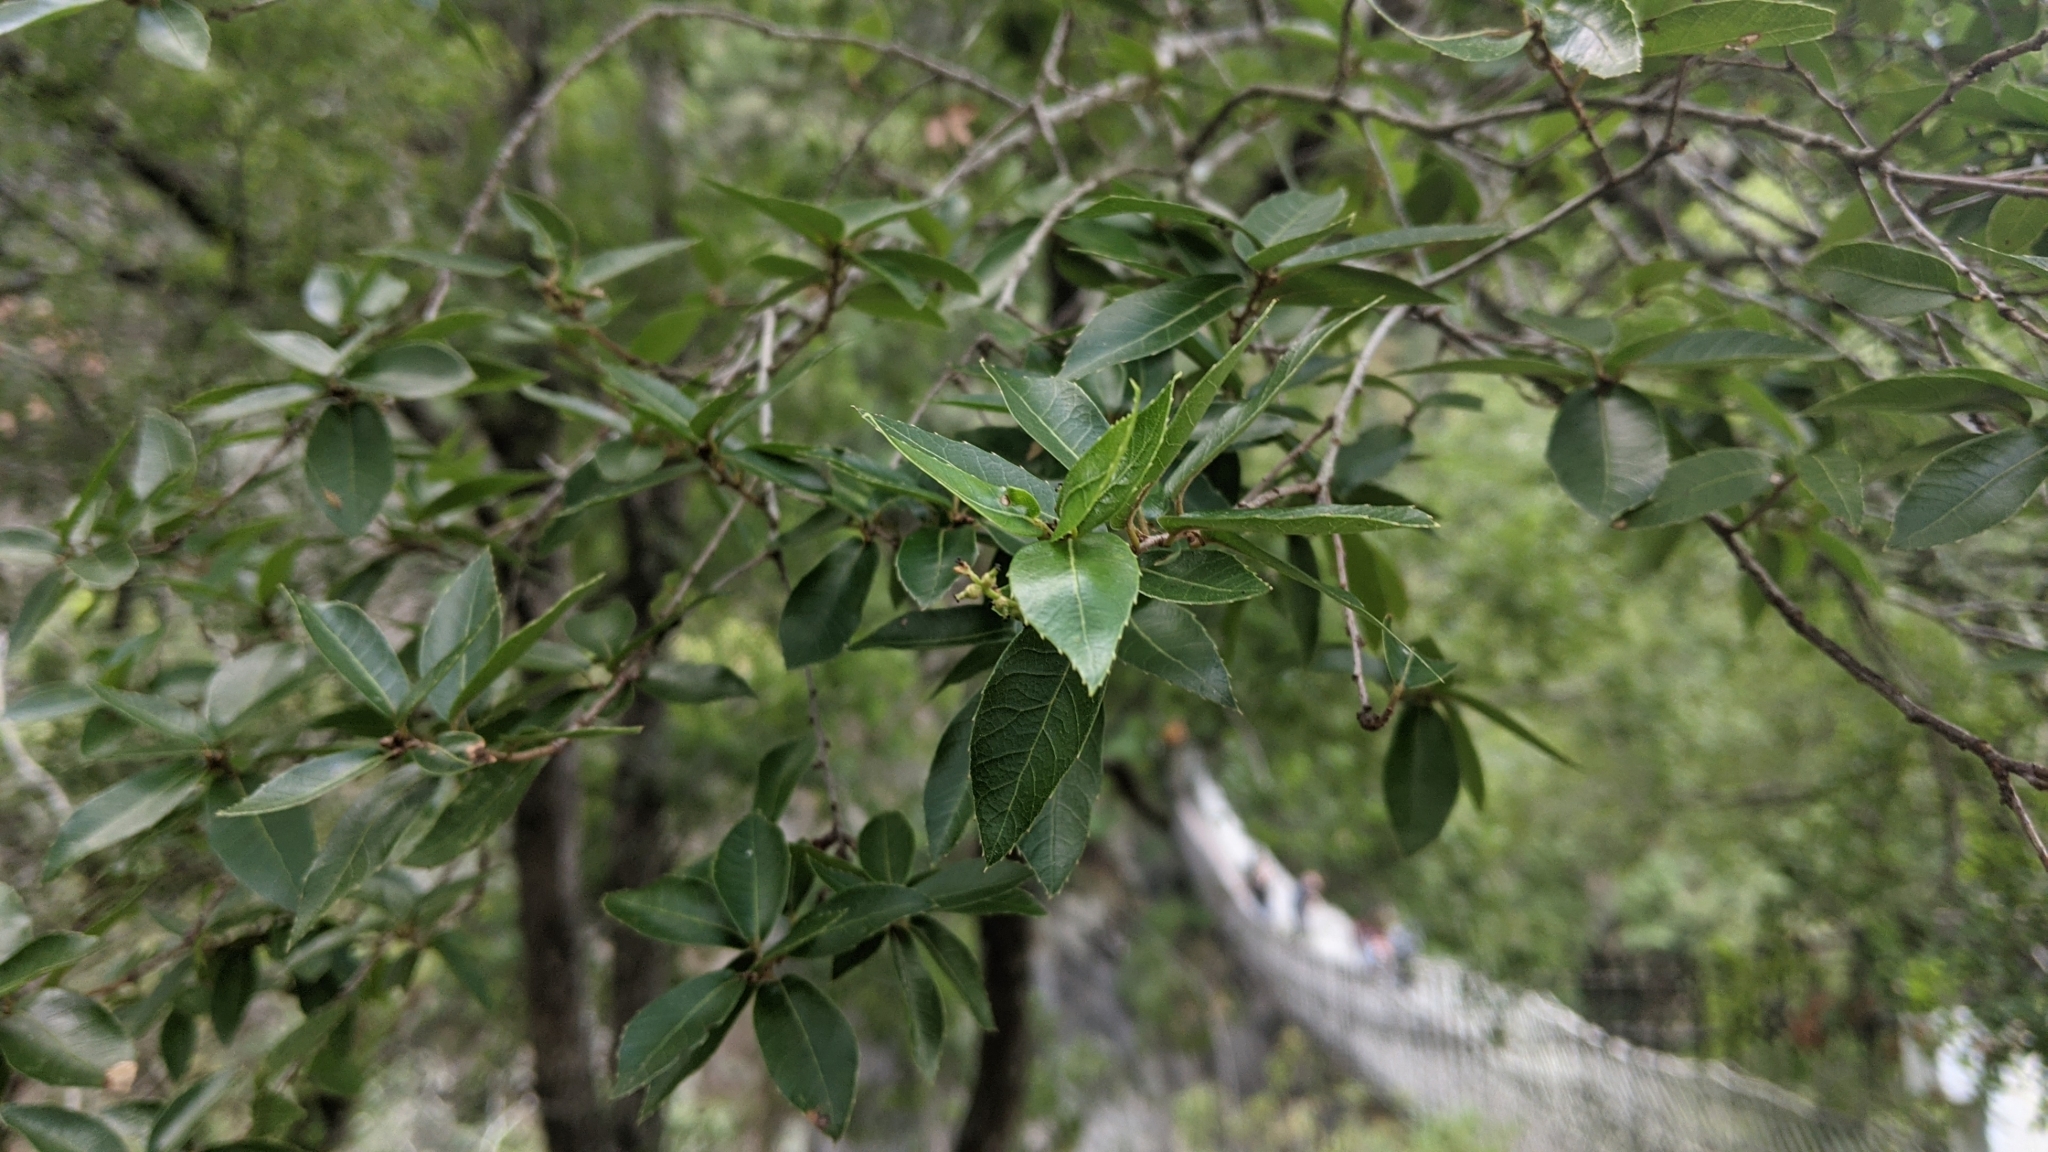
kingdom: Plantae
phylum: Tracheophyta
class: Magnoliopsida
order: Fagales
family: Fagaceae
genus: Quercus
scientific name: Quercus tarokoensis
